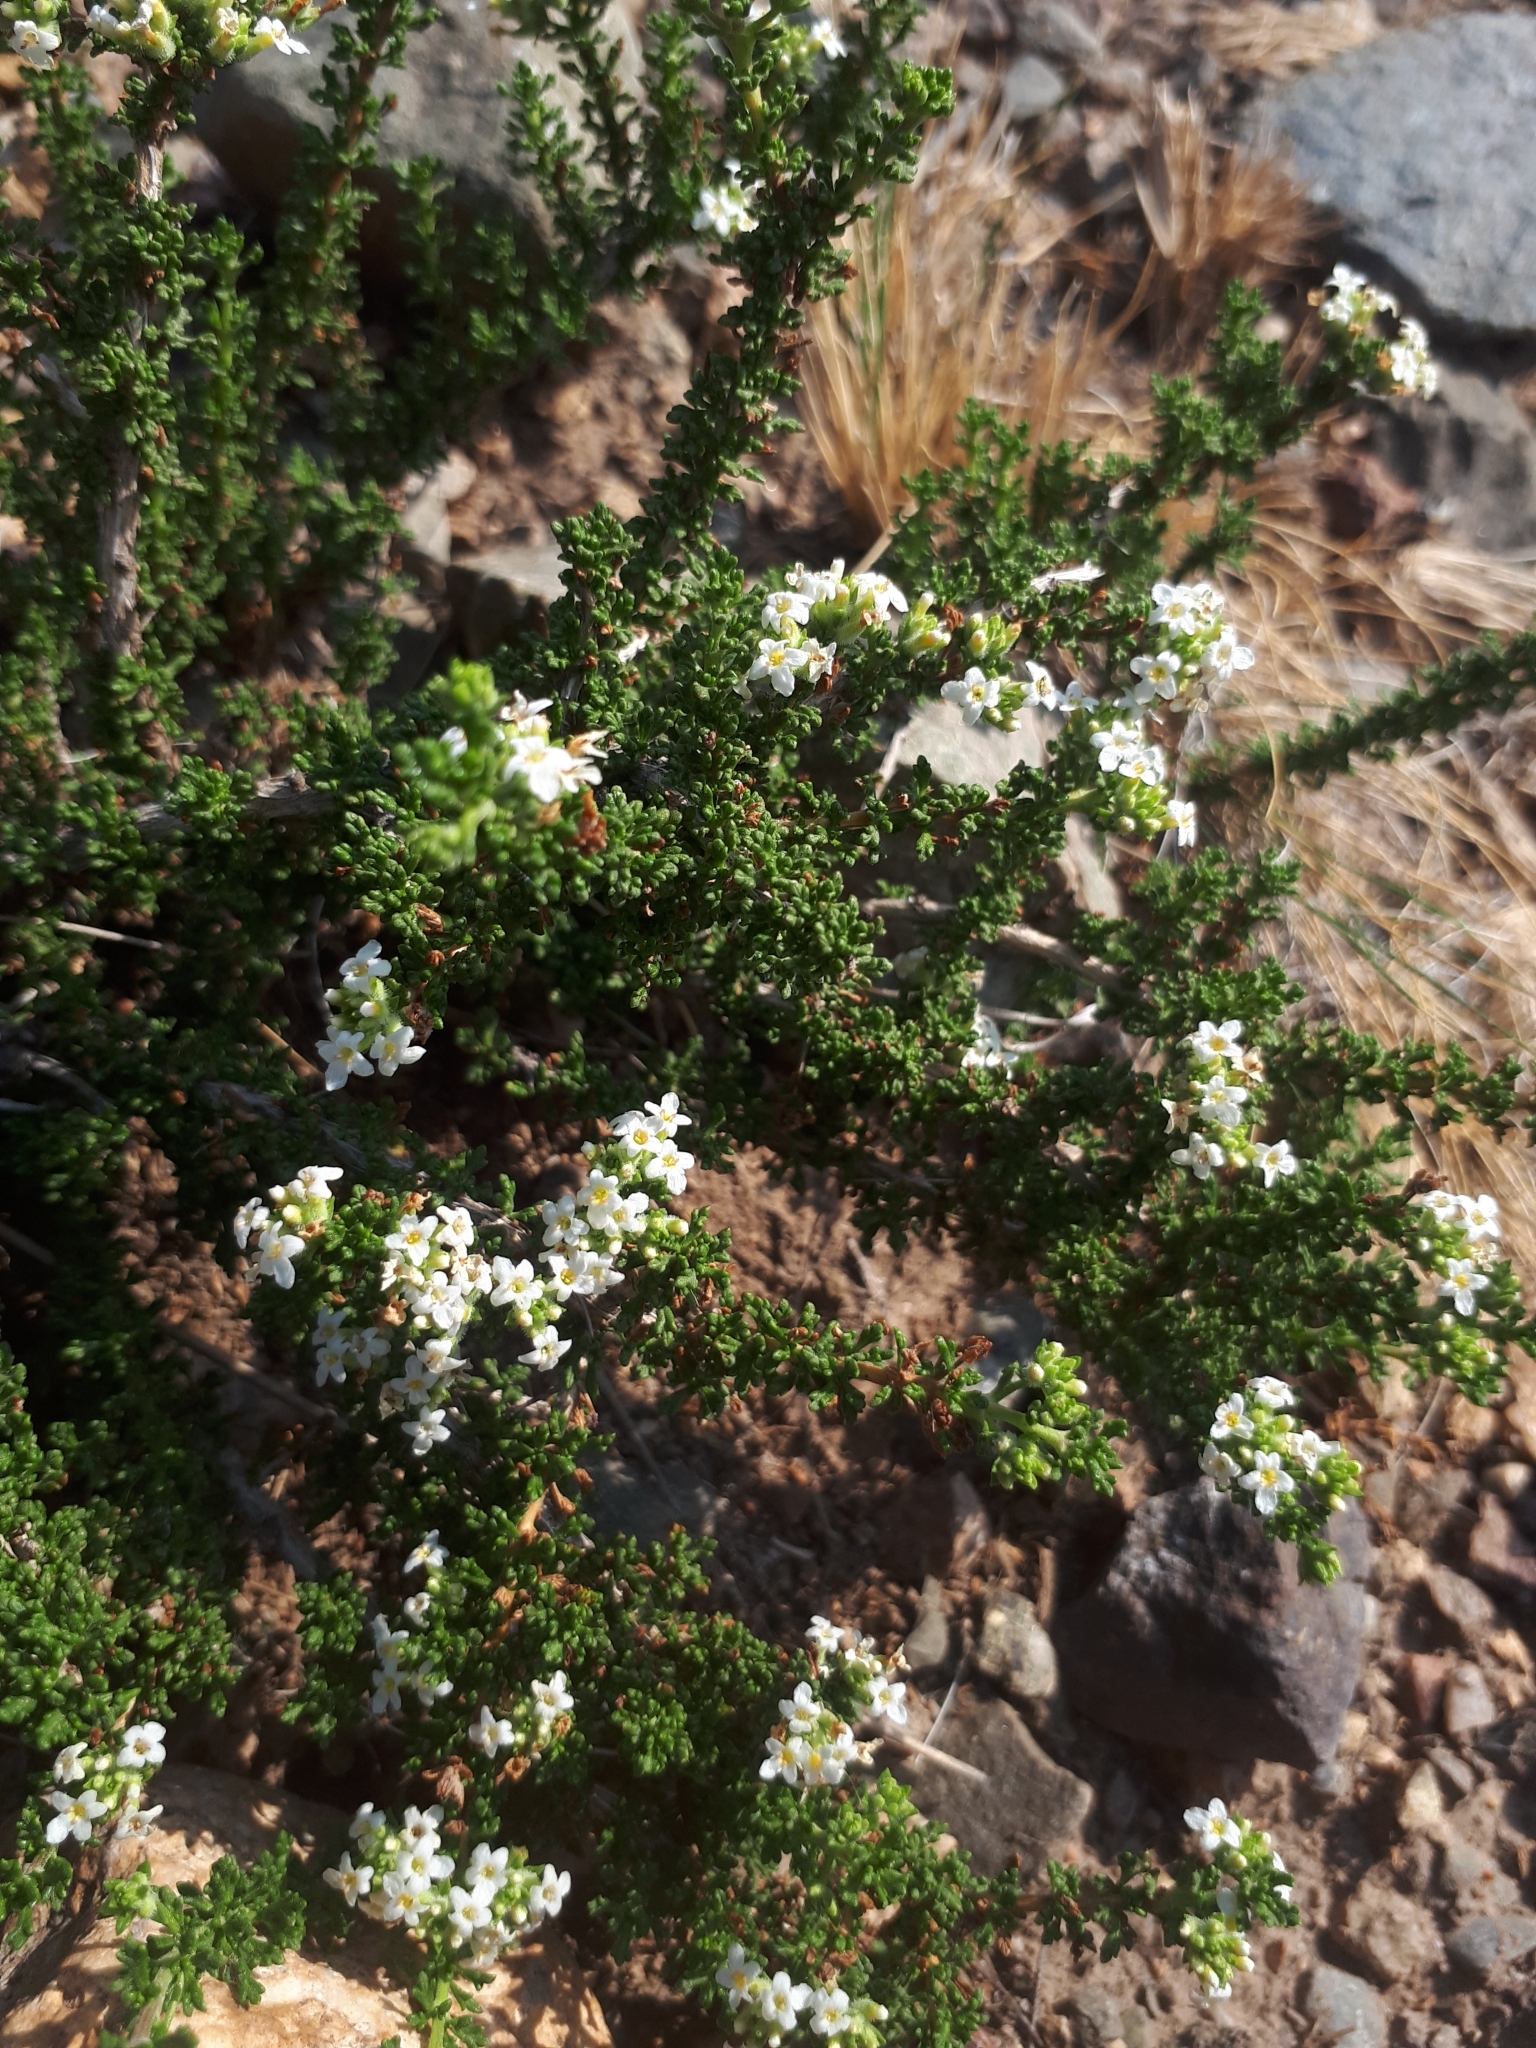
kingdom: Plantae
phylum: Tracheophyta
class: Magnoliopsida
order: Lamiales
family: Verbenaceae
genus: Acantholippia
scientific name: Acantholippia seriphioides
